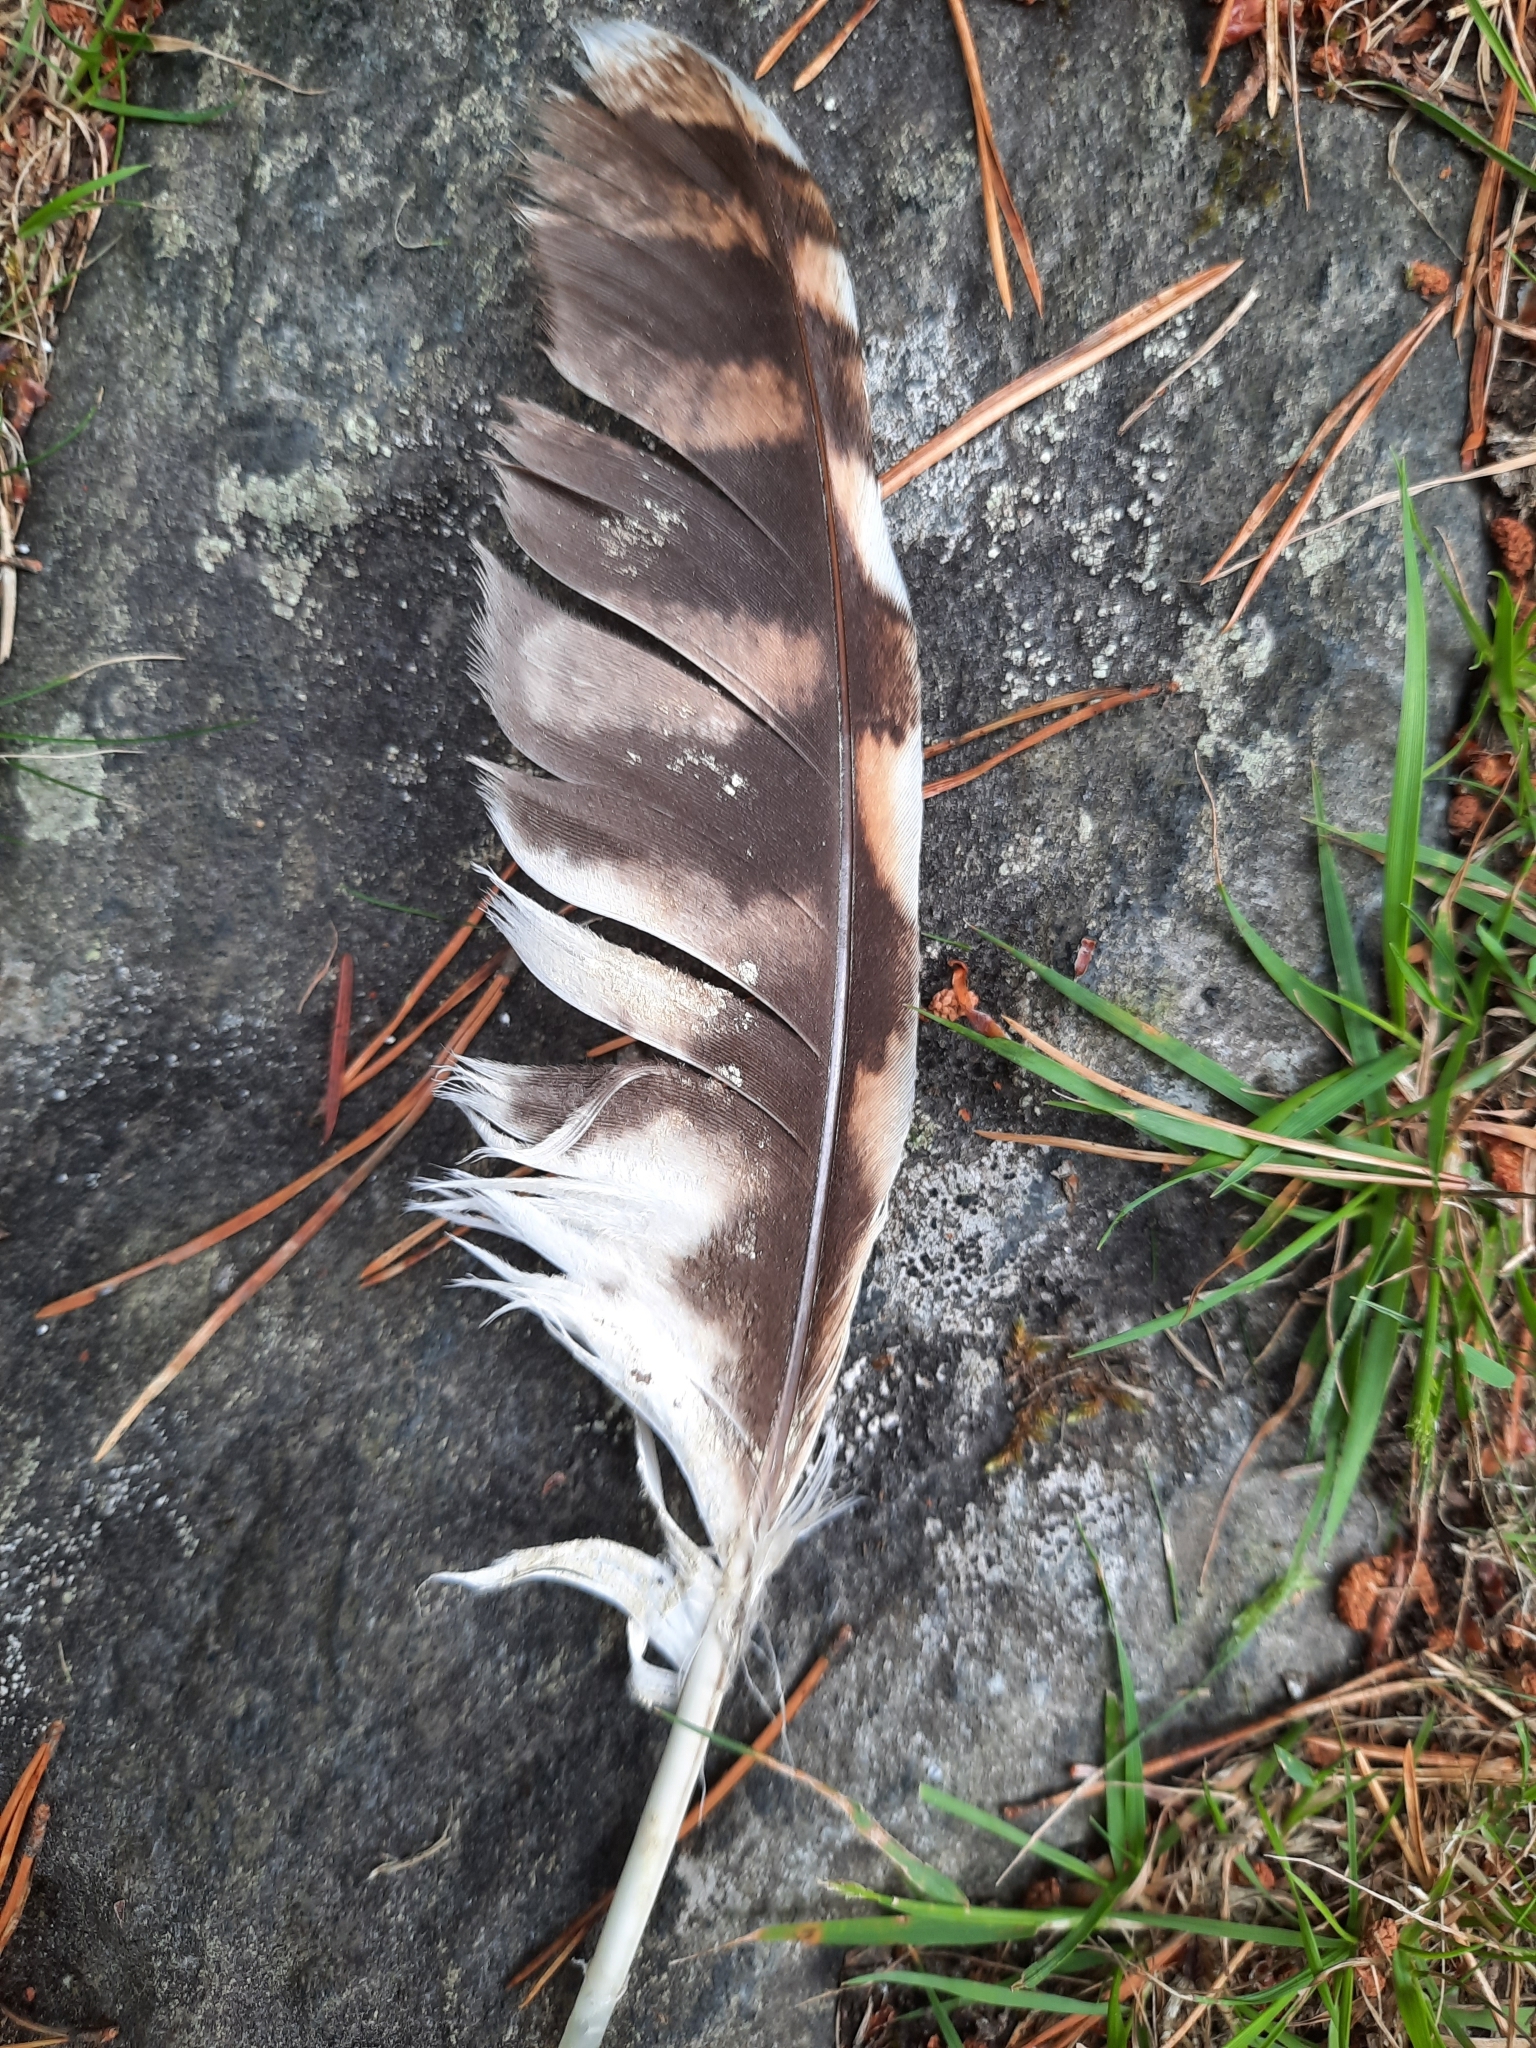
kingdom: Animalia
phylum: Chordata
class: Aves
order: Strigiformes
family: Strigidae
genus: Strix
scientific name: Strix aluco
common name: Tawny owl
